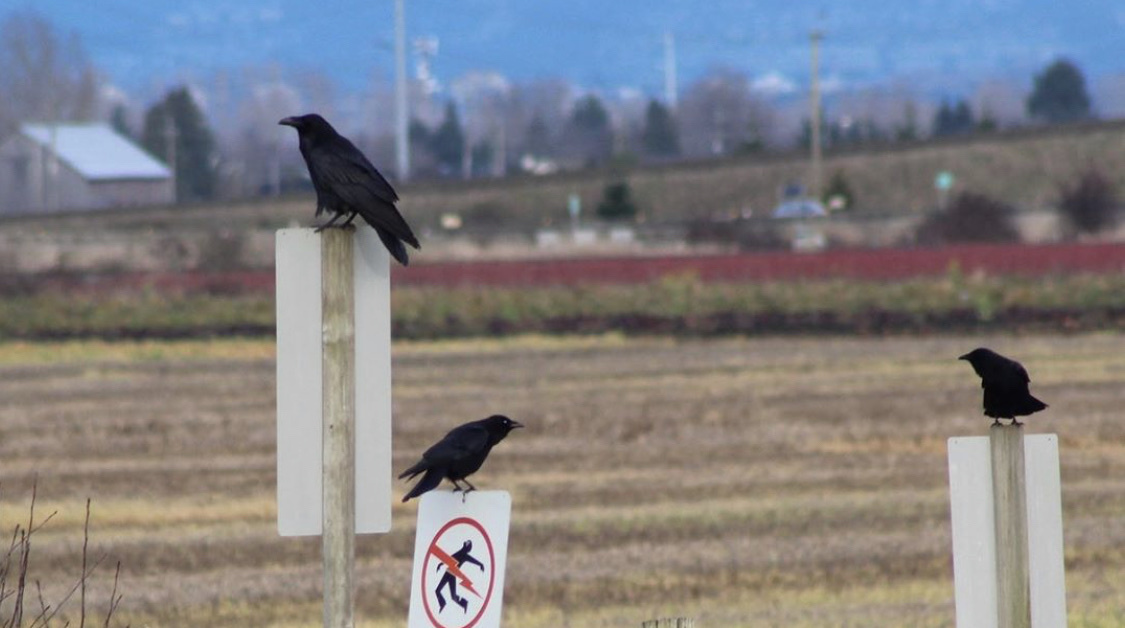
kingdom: Animalia
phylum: Chordata
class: Aves
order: Passeriformes
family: Corvidae
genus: Corvus
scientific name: Corvus corax
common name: Common raven
